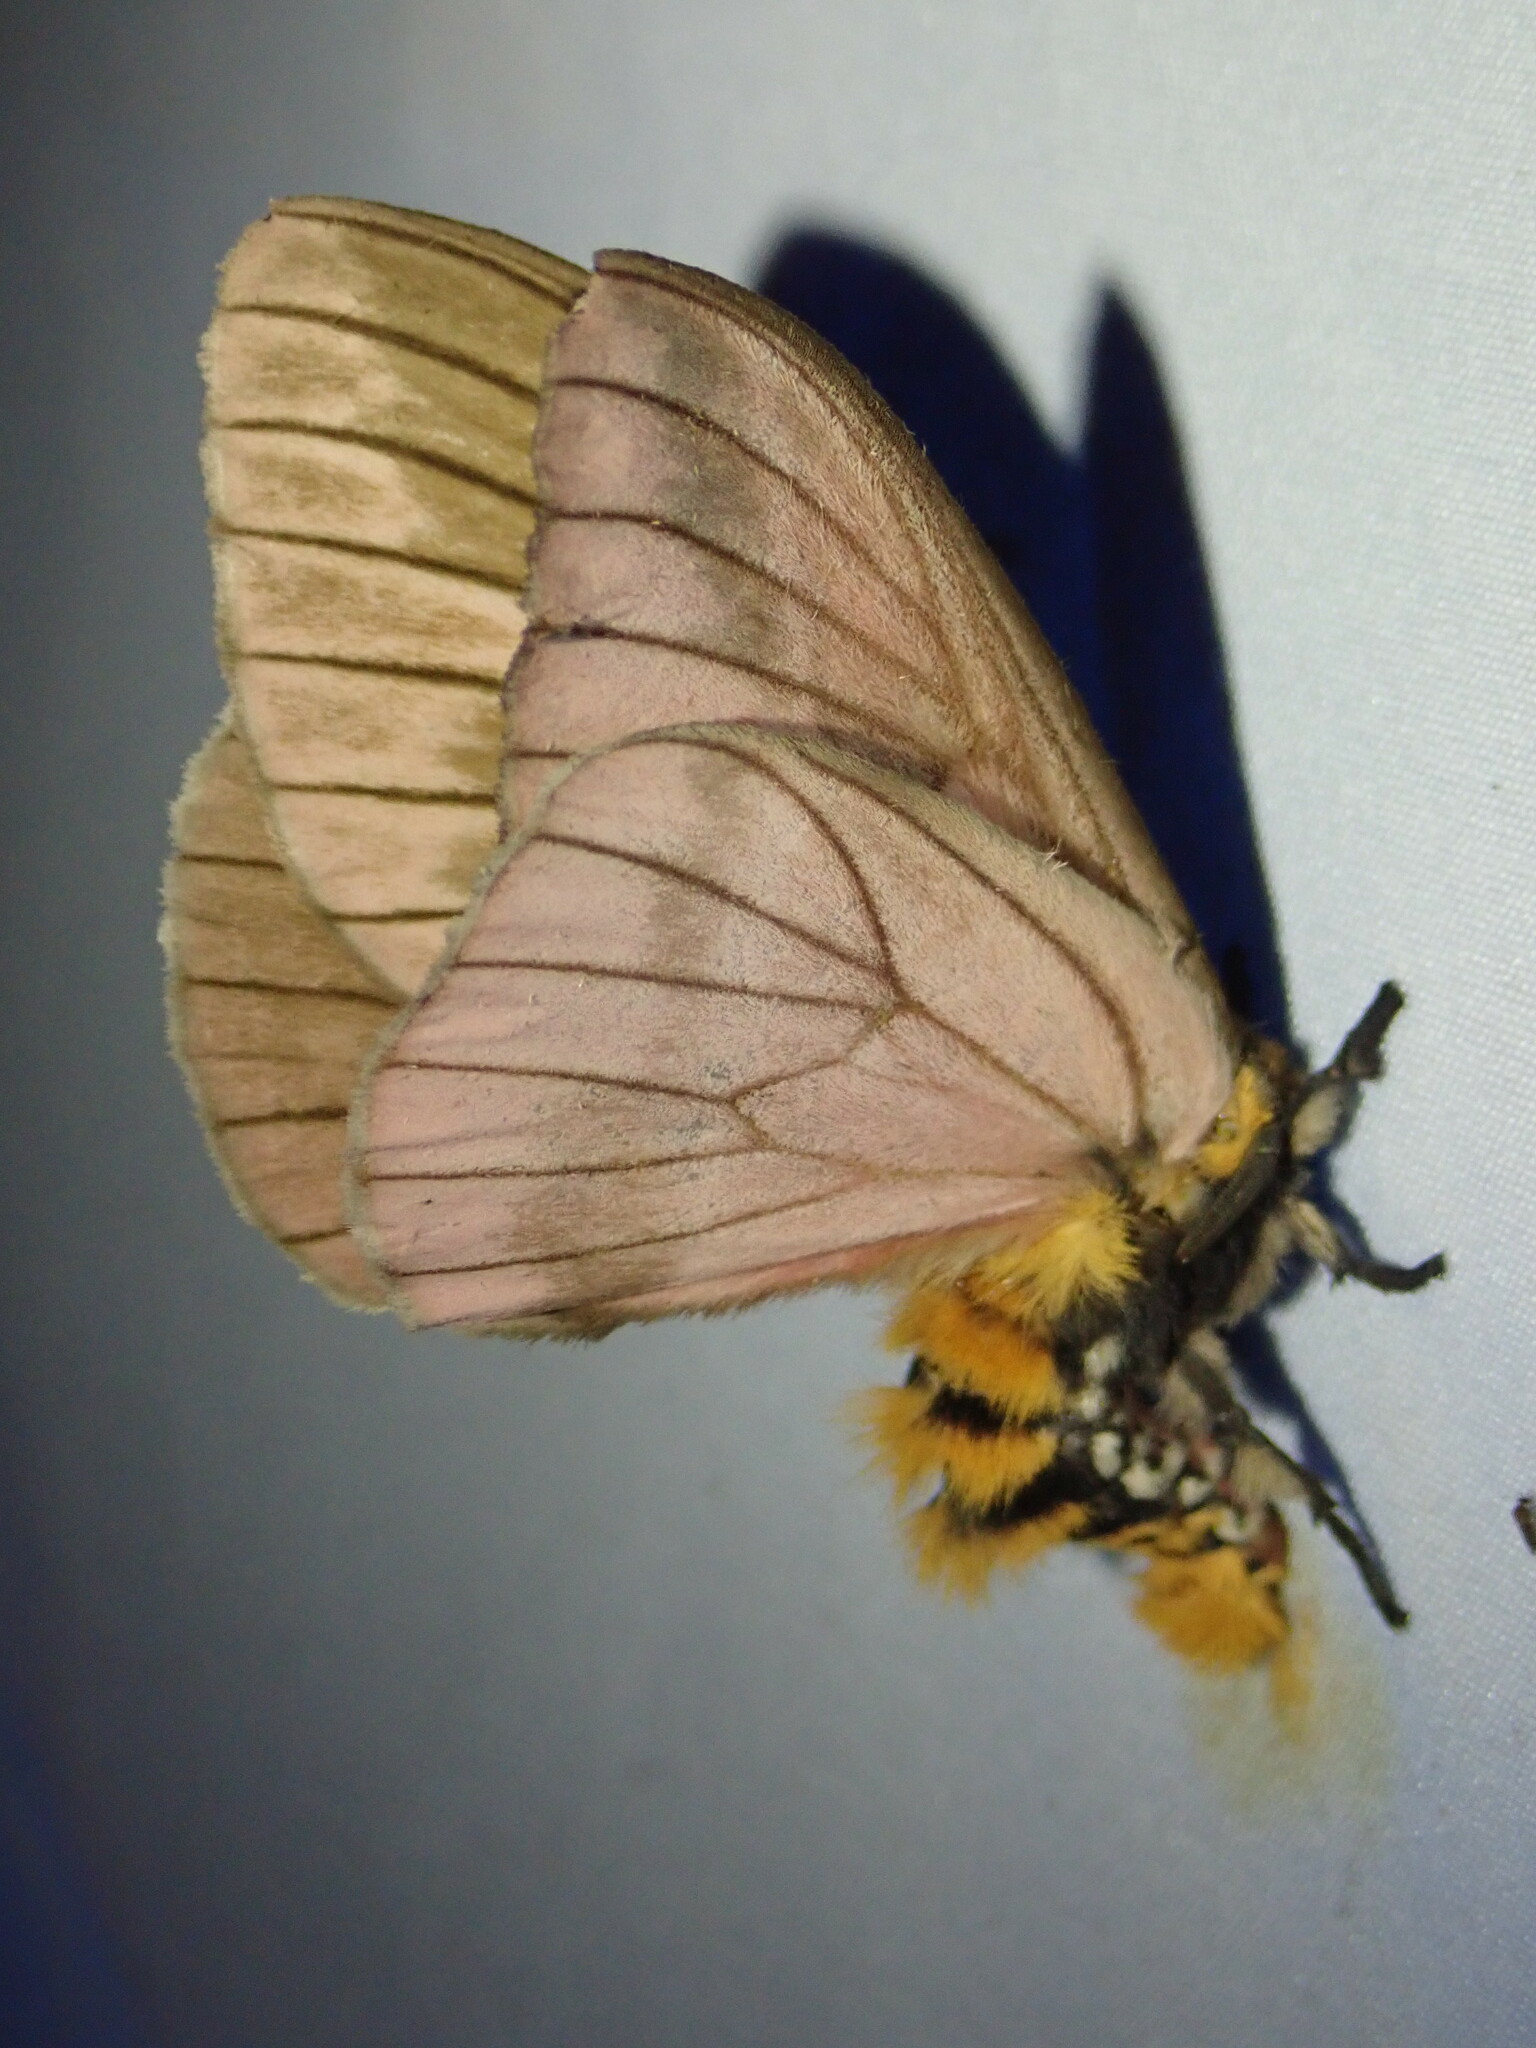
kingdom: Animalia
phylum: Arthropoda
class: Insecta
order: Lepidoptera
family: Saturniidae
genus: Pseudodirphia
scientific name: Pseudodirphia regia
